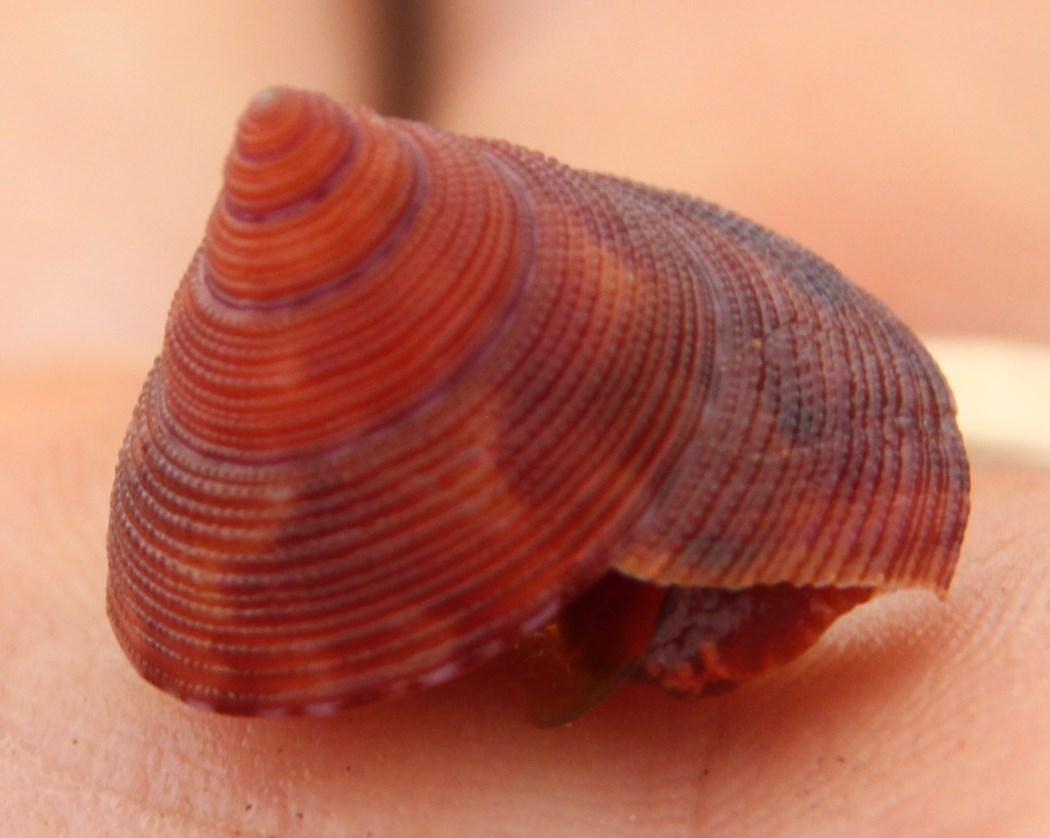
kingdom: Animalia
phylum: Mollusca
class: Gastropoda
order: Trochida
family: Calliostomatidae
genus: Calliostoma
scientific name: Calliostoma ornatum
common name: Ornate topshell
